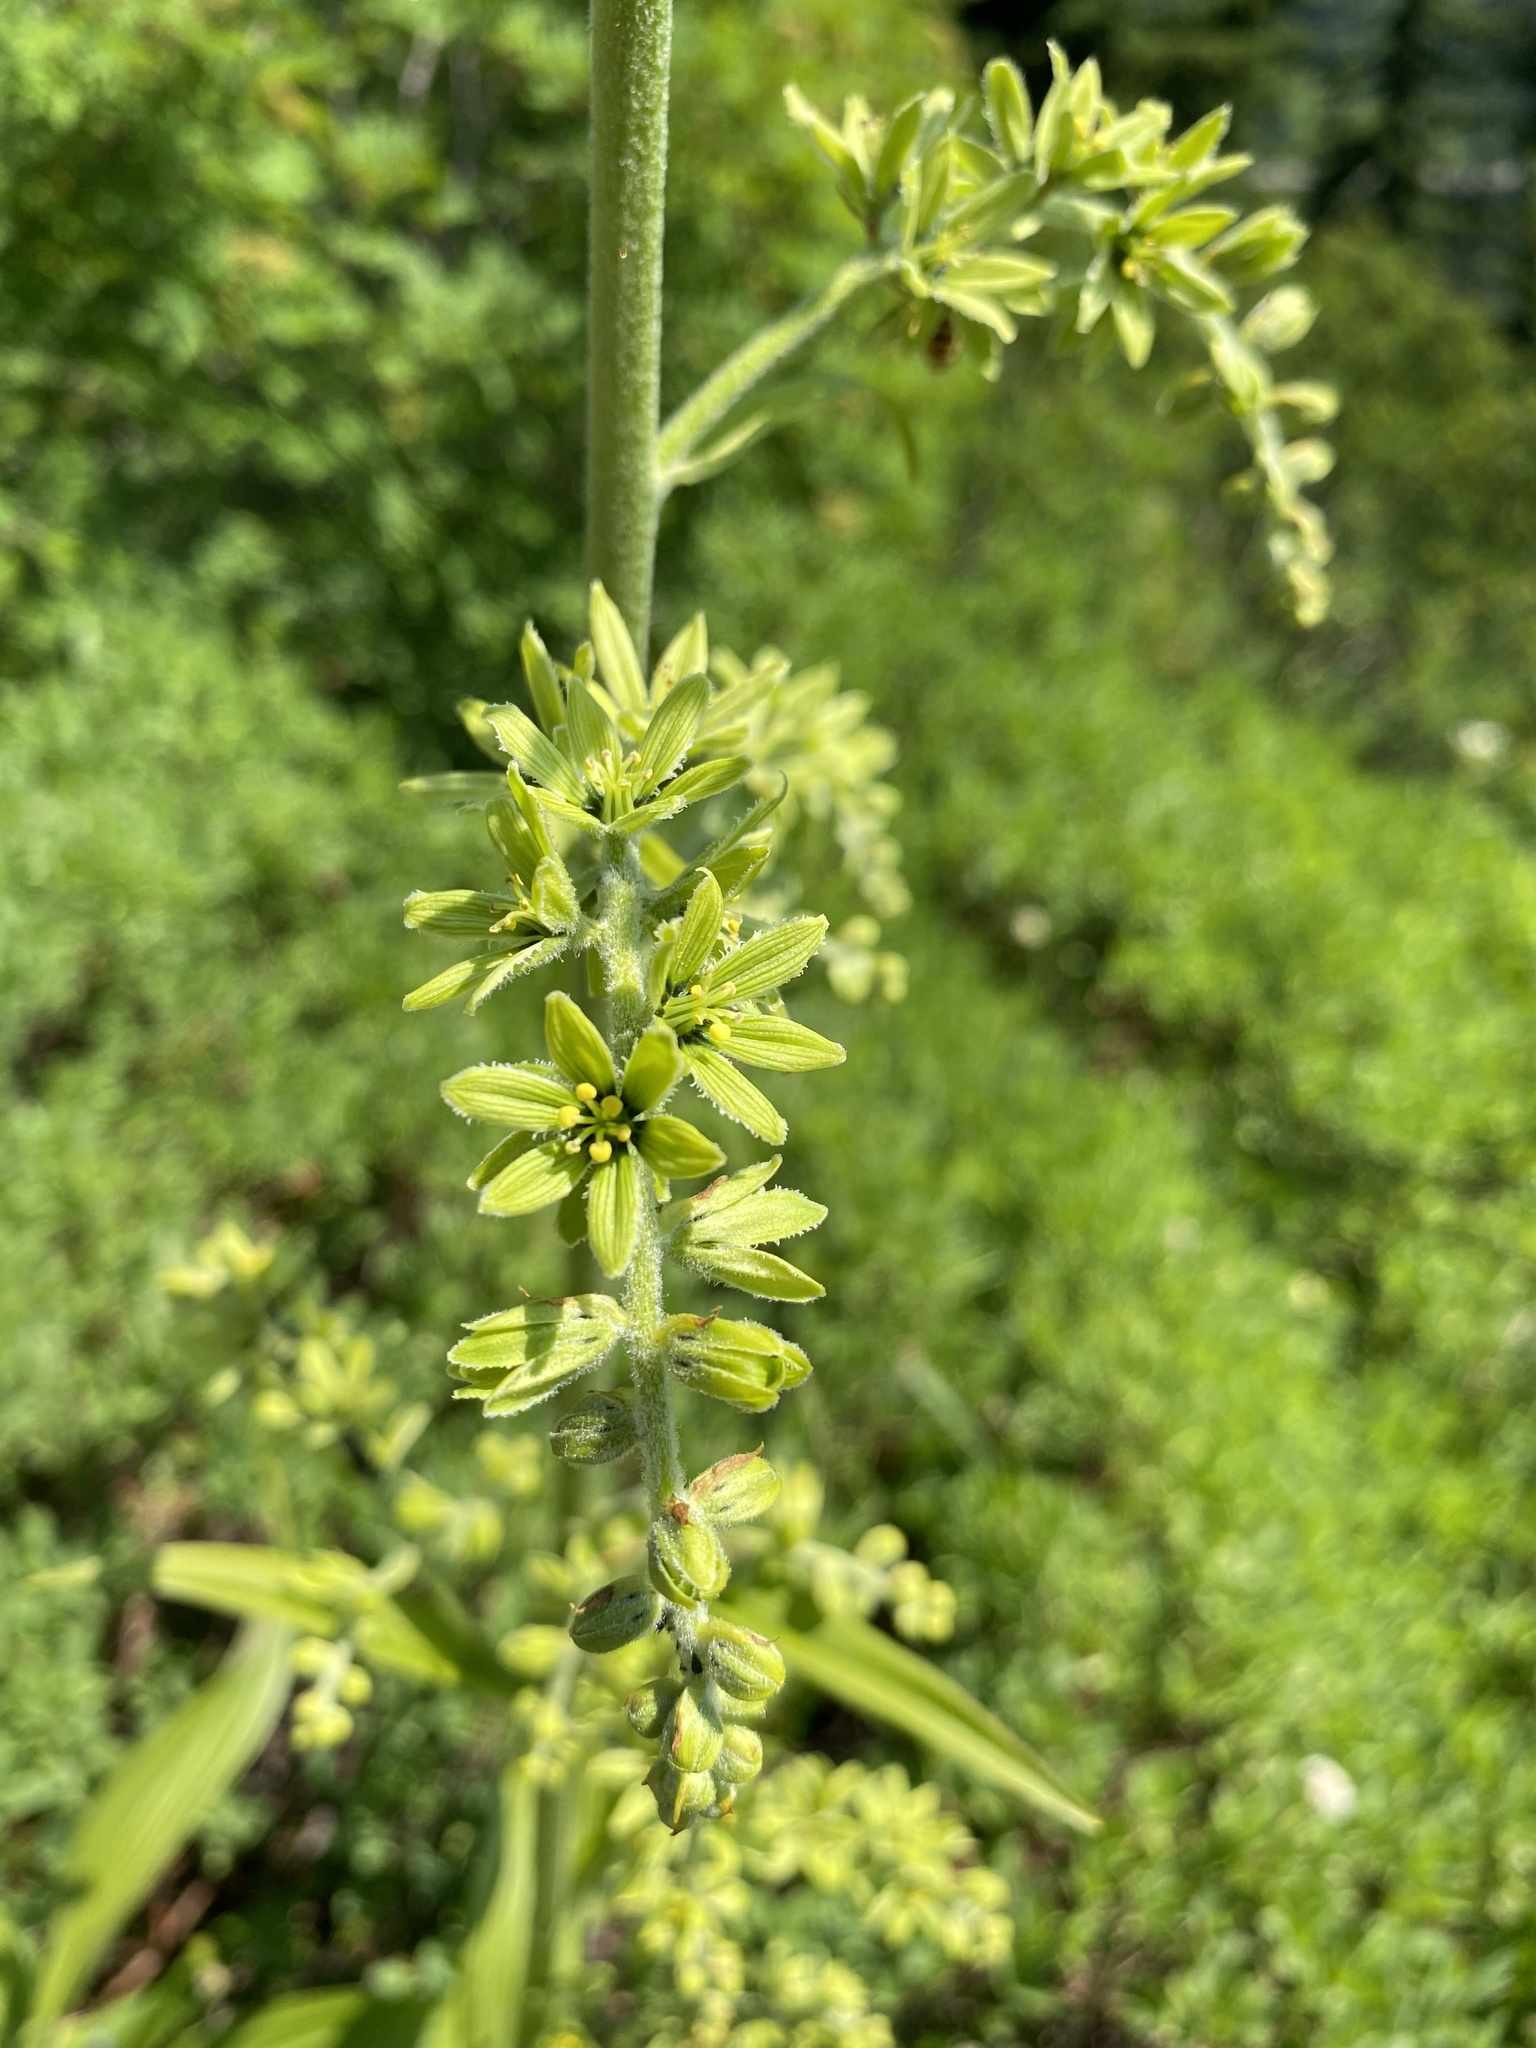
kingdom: Plantae
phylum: Tracheophyta
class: Liliopsida
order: Liliales
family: Melanthiaceae
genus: Veratrum
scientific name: Veratrum viride
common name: American false hellebore
